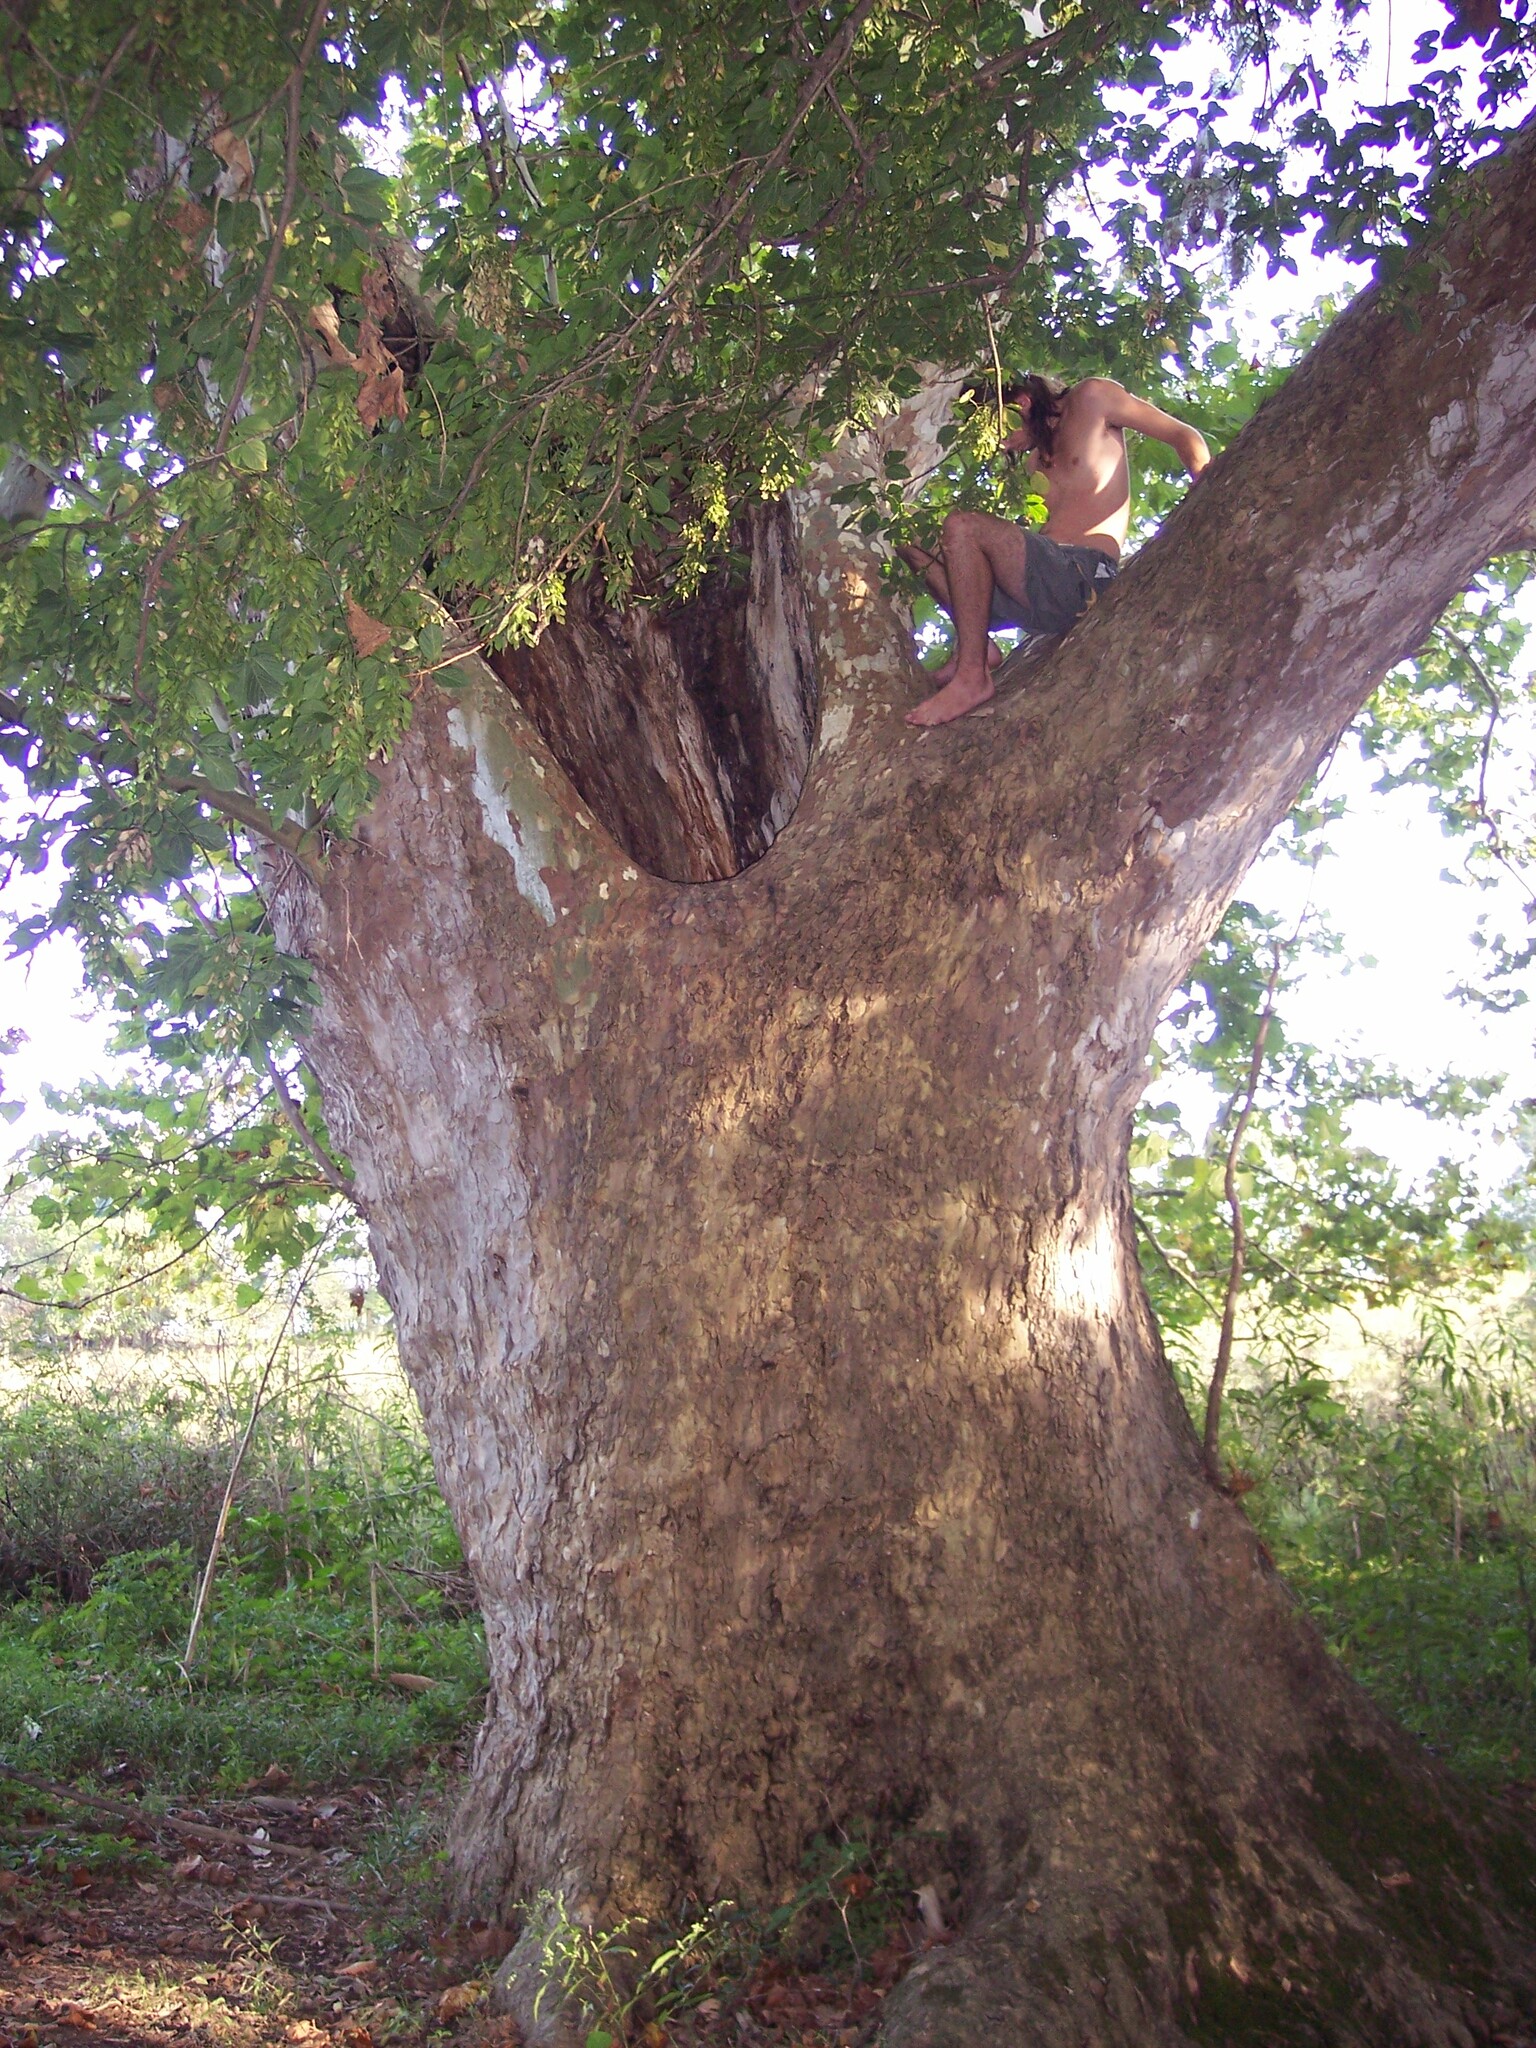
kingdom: Plantae
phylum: Tracheophyta
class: Magnoliopsida
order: Proteales
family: Platanaceae
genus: Platanus
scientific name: Platanus occidentalis
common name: American sycamore
